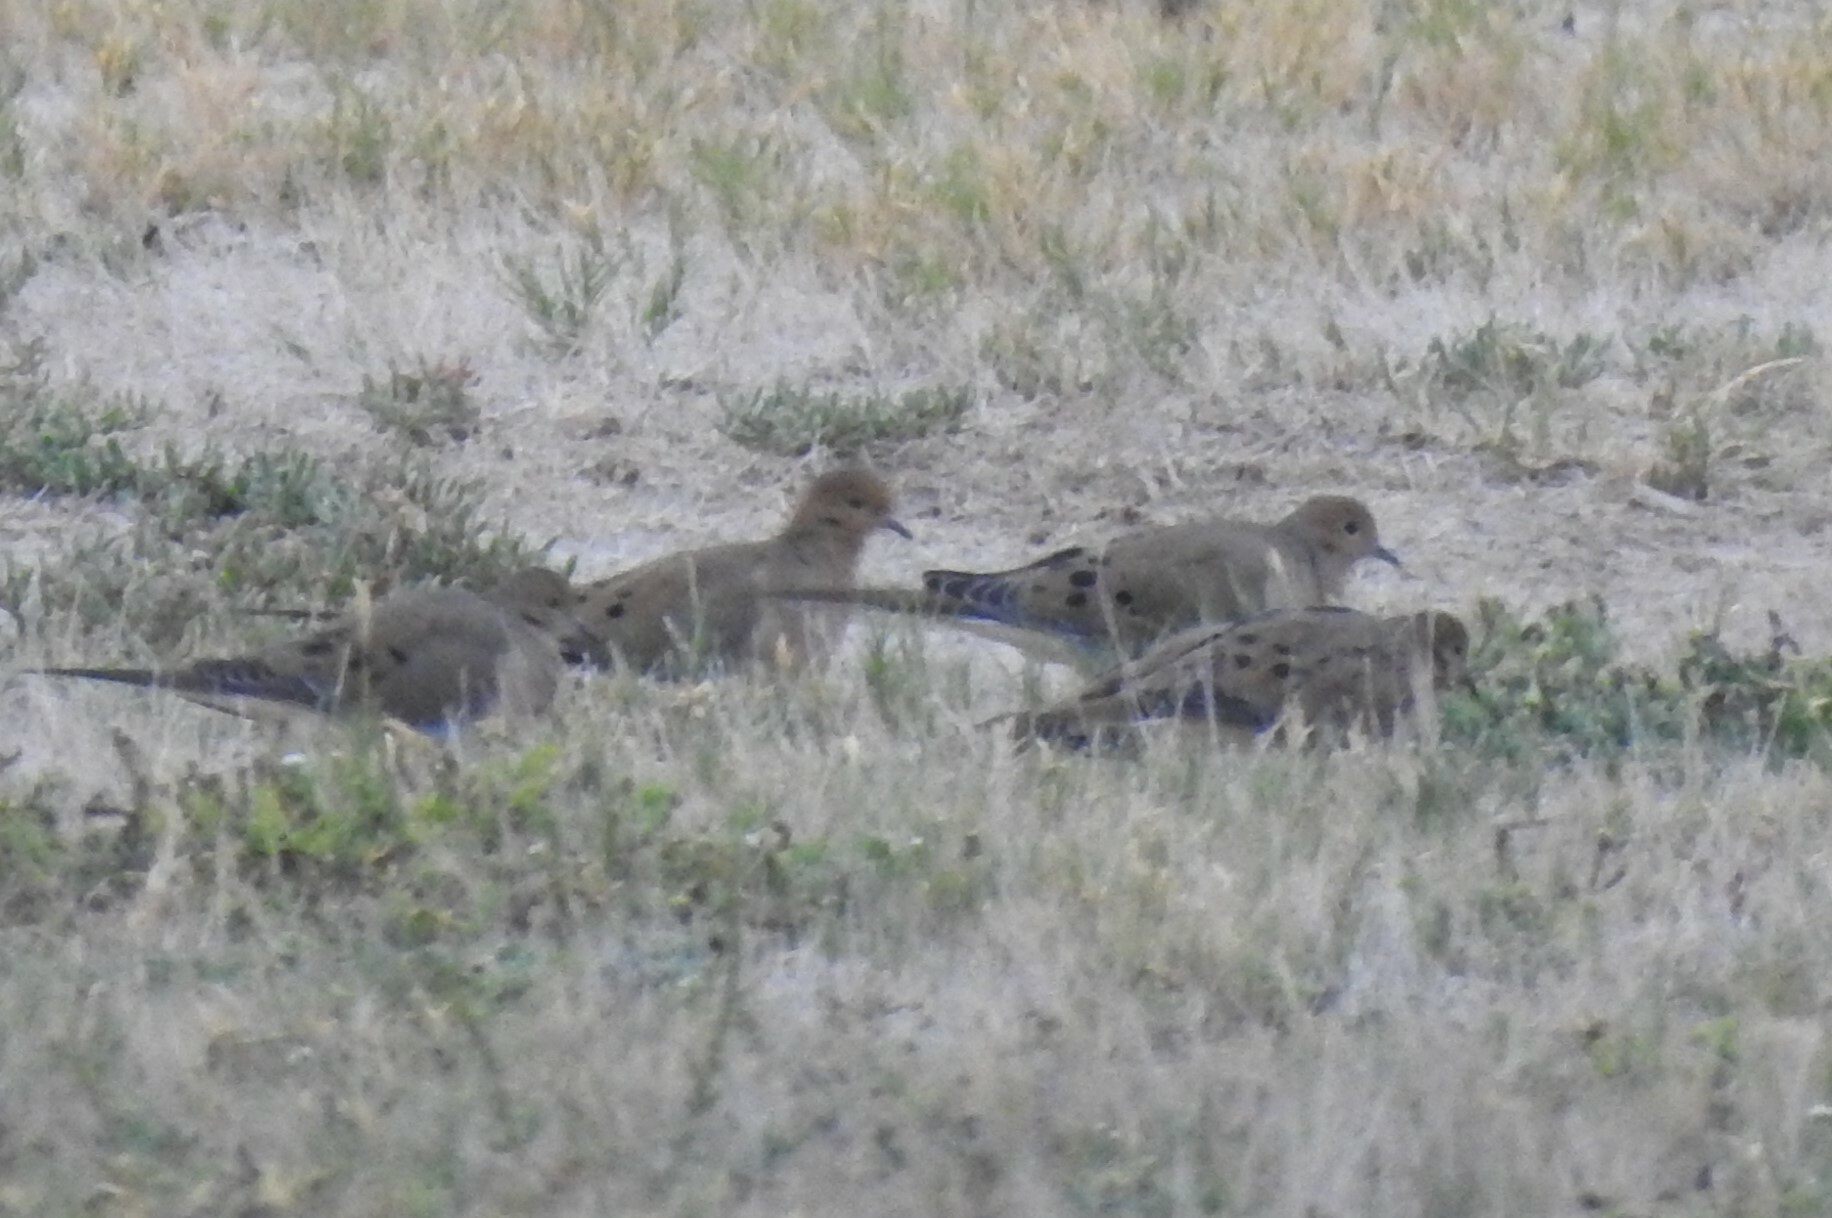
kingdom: Animalia
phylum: Chordata
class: Aves
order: Columbiformes
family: Columbidae
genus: Zenaida
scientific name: Zenaida macroura
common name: Mourning dove
